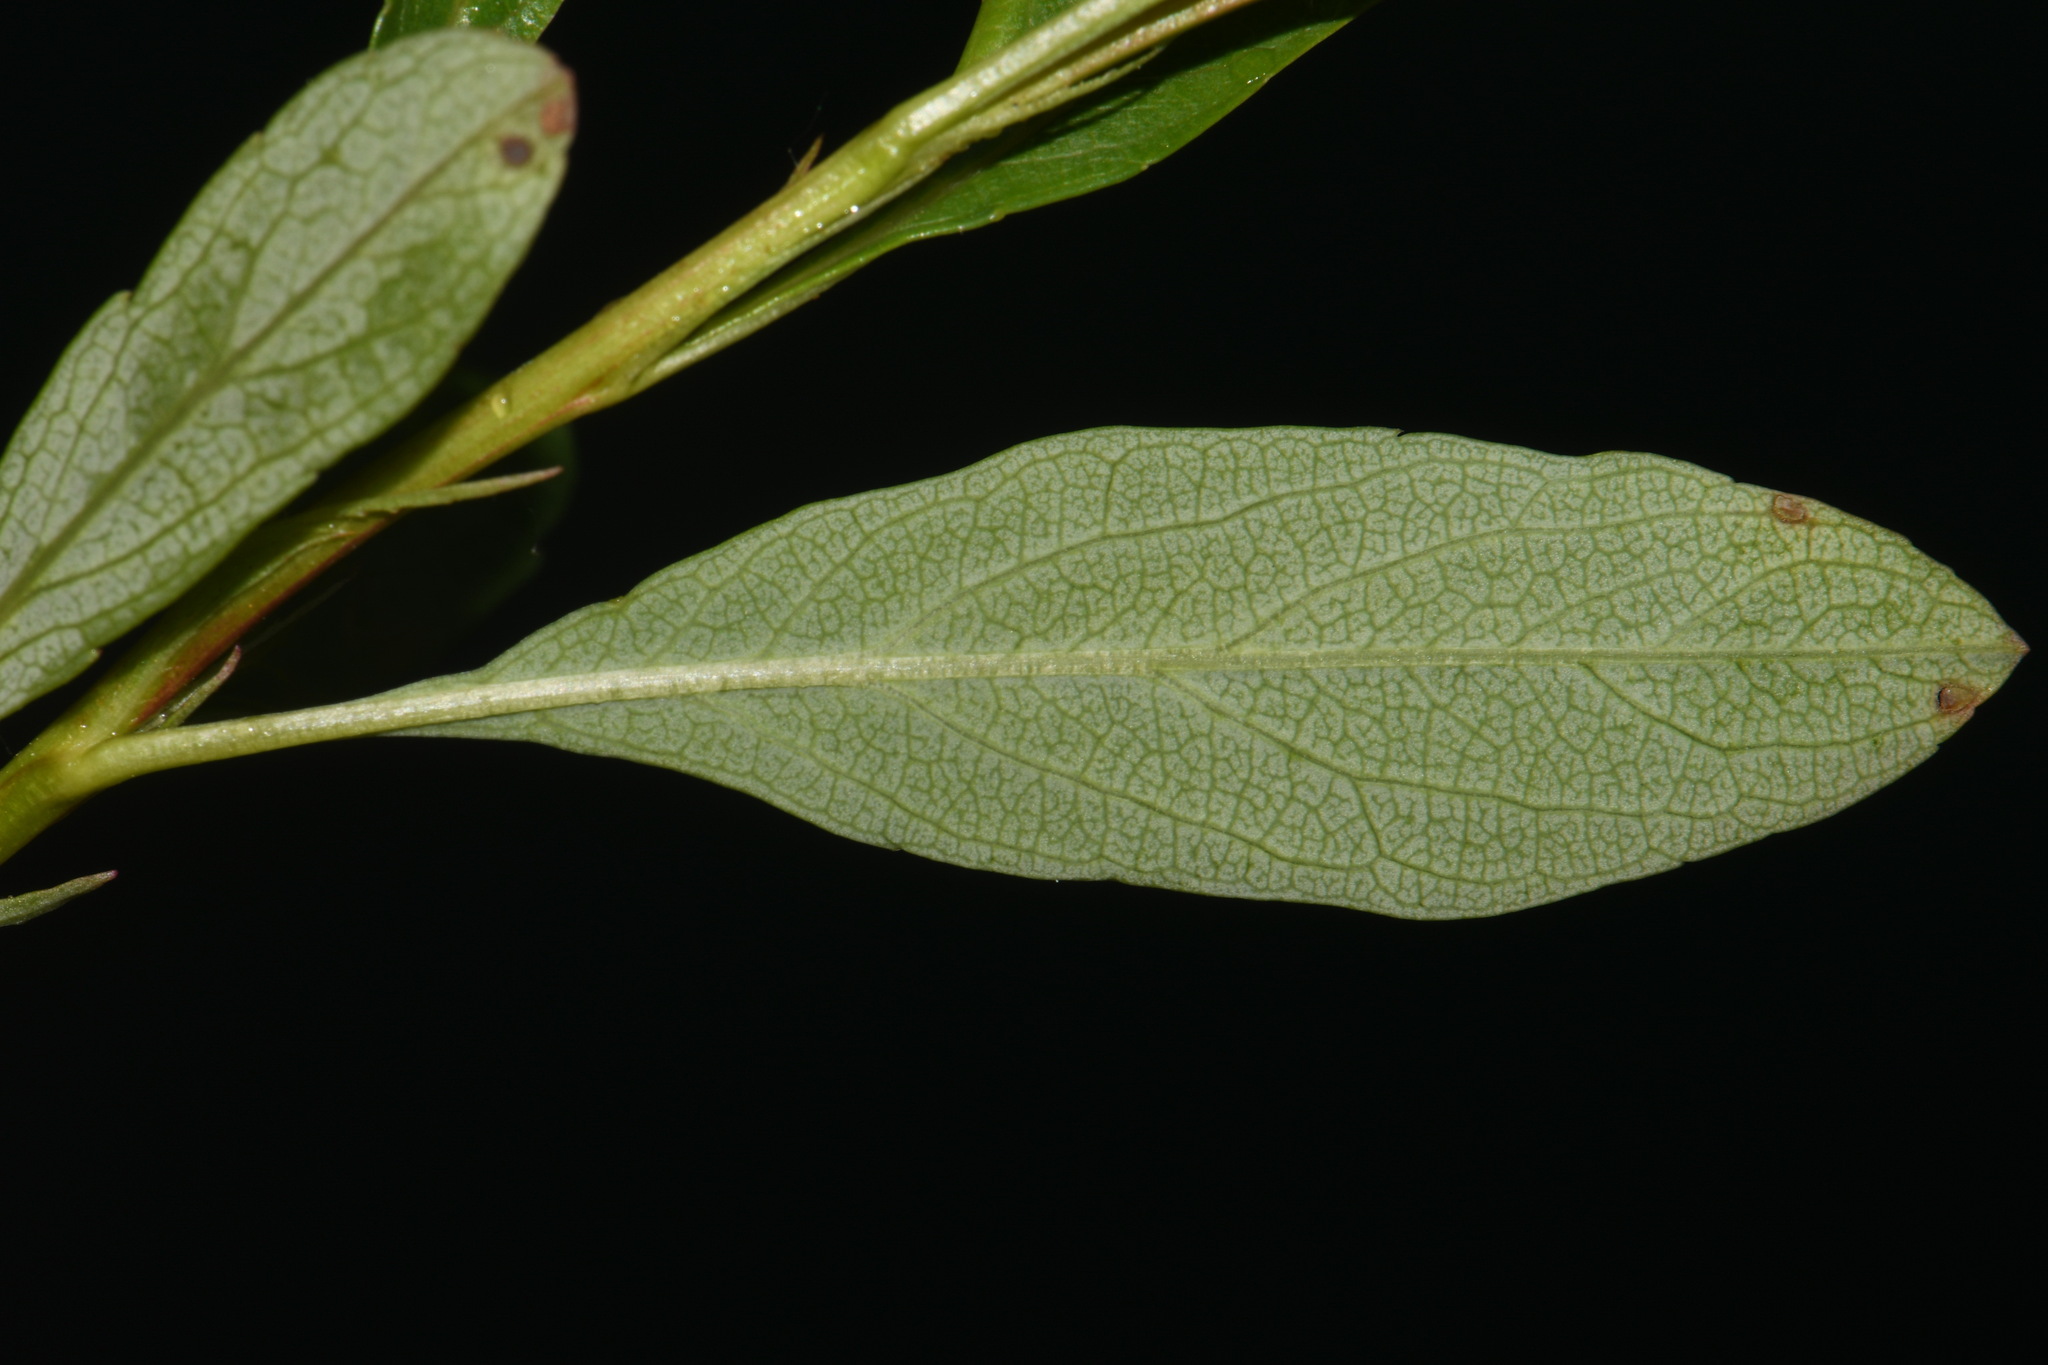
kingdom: Plantae
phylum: Tracheophyta
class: Magnoliopsida
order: Rosales
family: Rosaceae
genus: Prunus
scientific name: Prunus pumila
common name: Dwarf cherry
